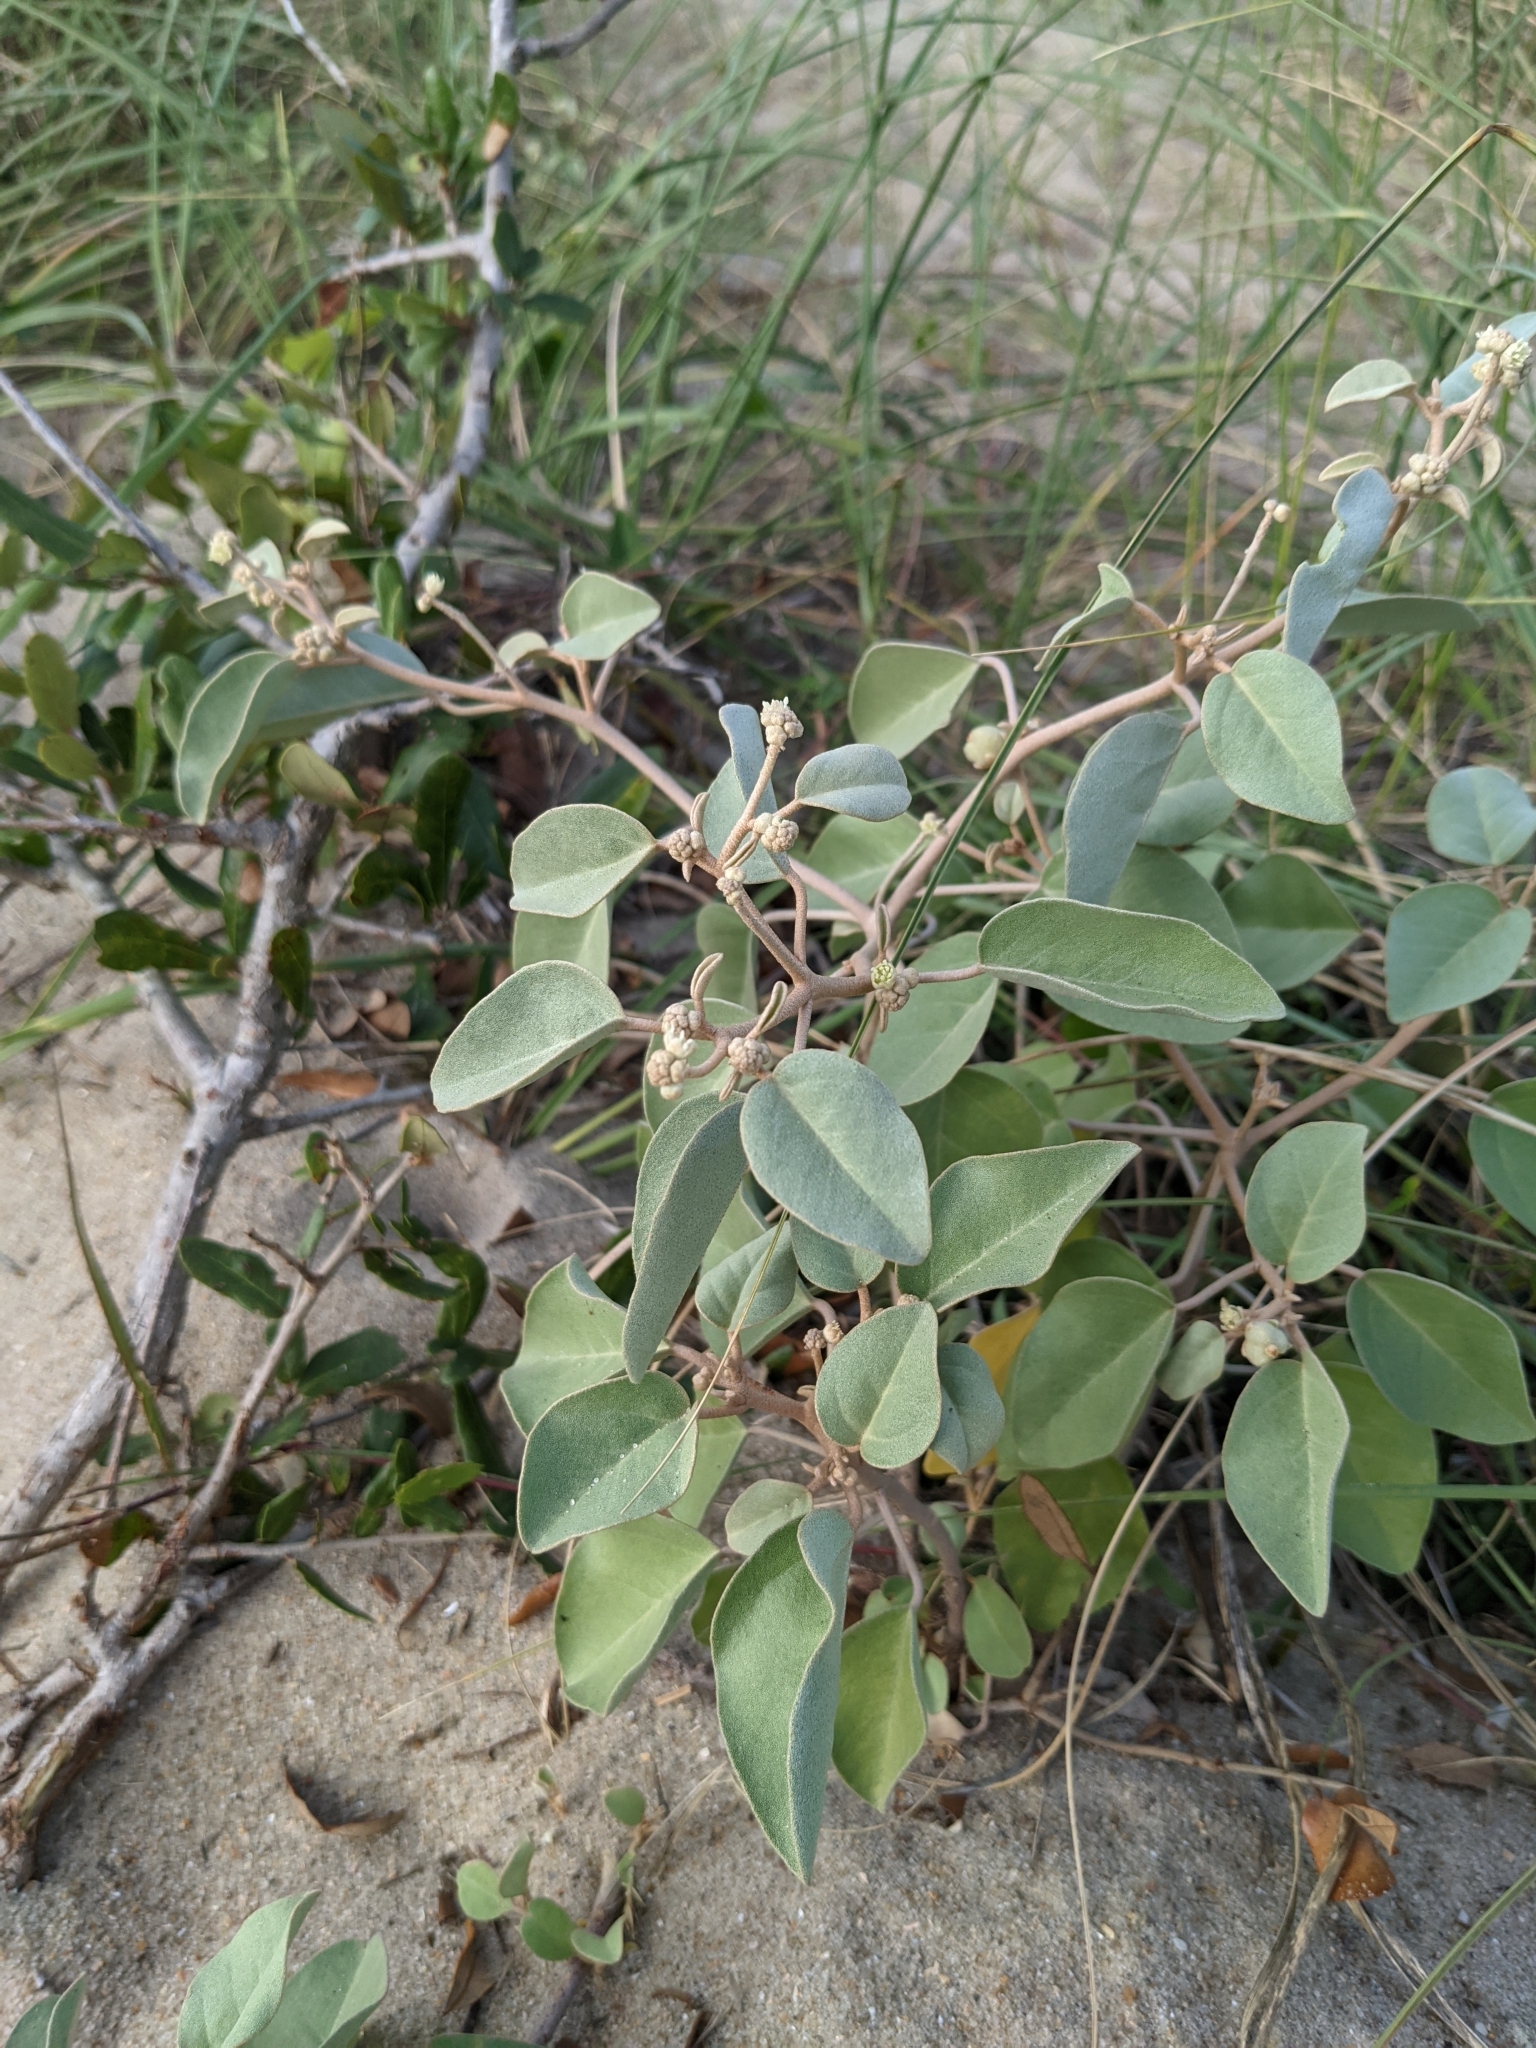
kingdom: Plantae
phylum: Tracheophyta
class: Magnoliopsida
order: Malpighiales
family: Euphorbiaceae
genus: Croton
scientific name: Croton punctatus
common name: Beach-tea
